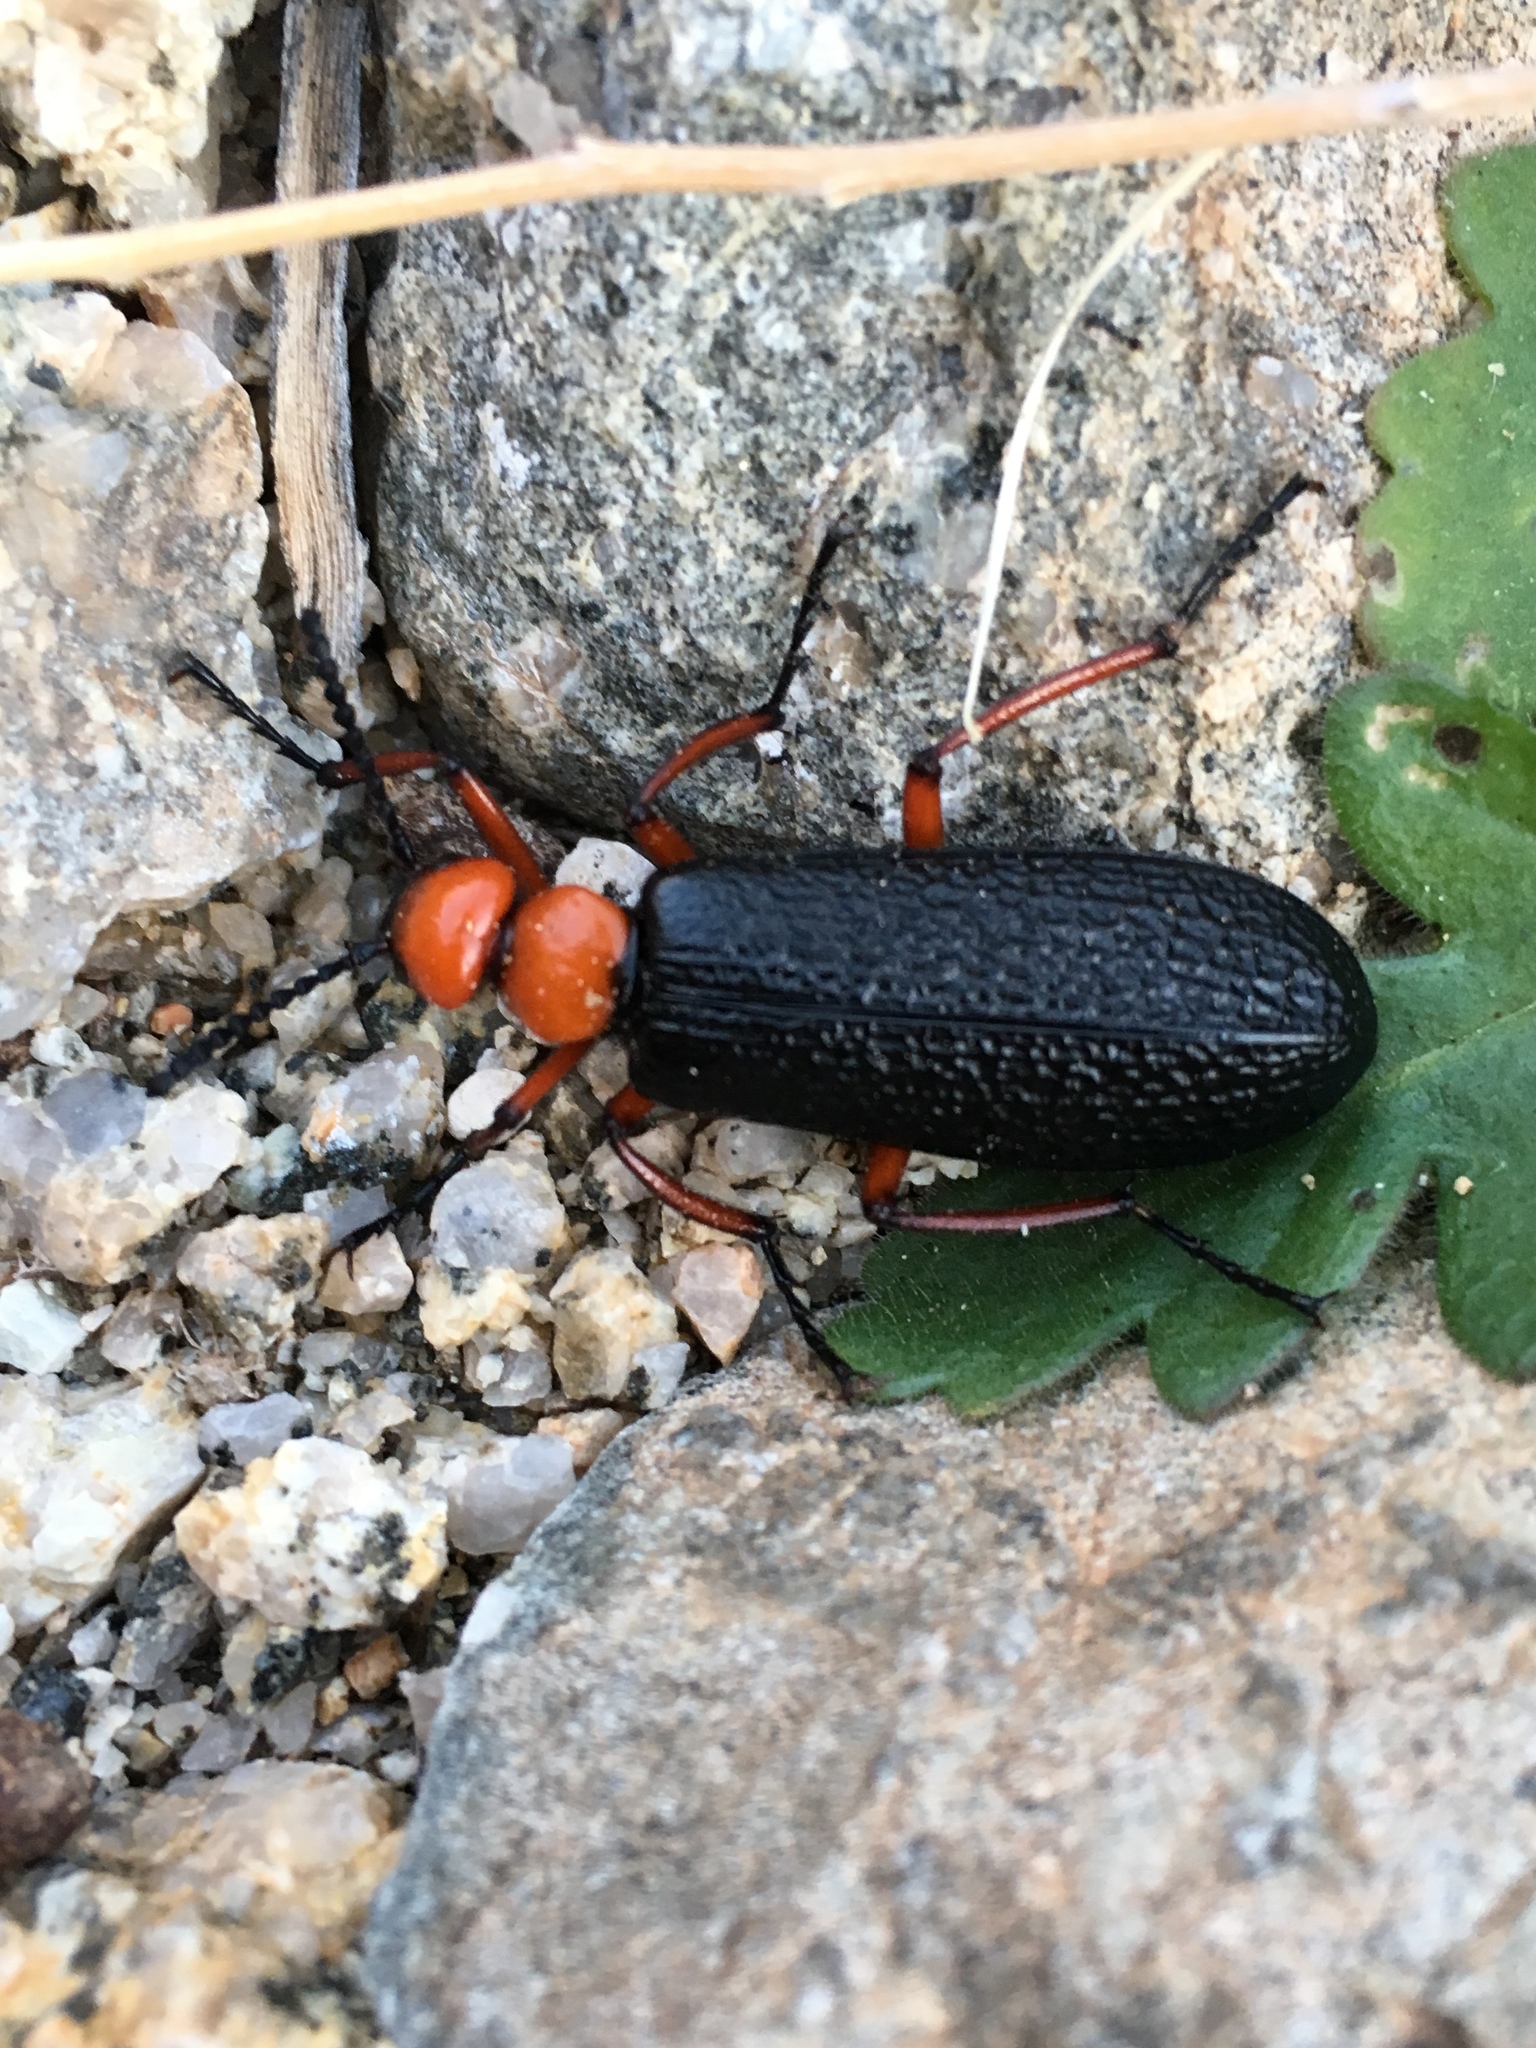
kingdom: Animalia
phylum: Arthropoda
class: Insecta
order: Coleoptera
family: Meloidae
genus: Lytta
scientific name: Lytta magister
